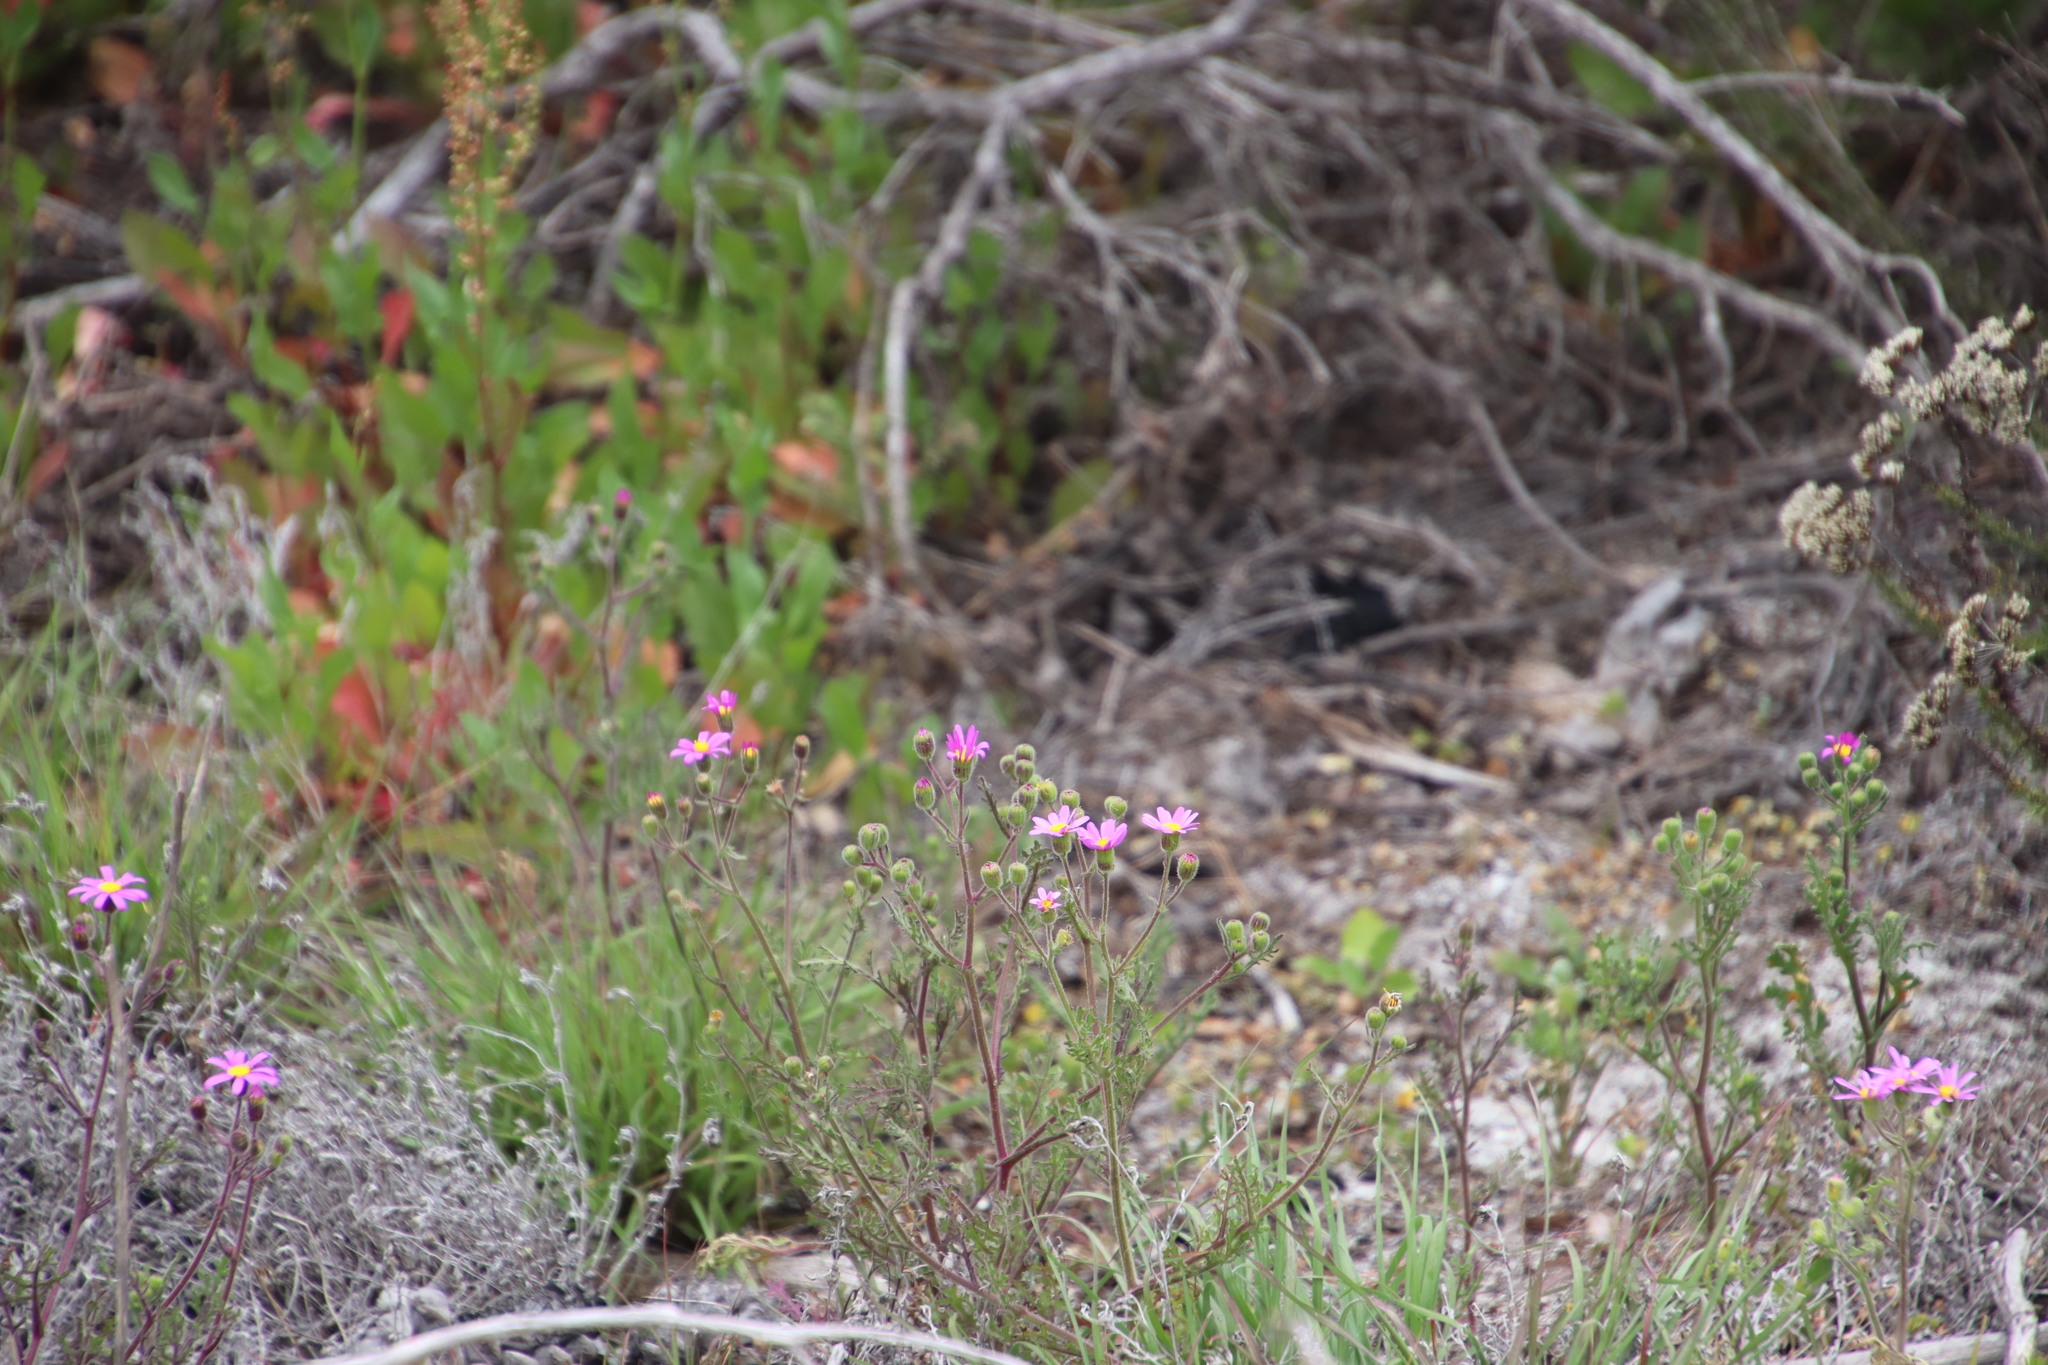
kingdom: Plantae
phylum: Tracheophyta
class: Magnoliopsida
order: Asterales
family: Asteraceae
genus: Senecio
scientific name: Senecio arenarius
